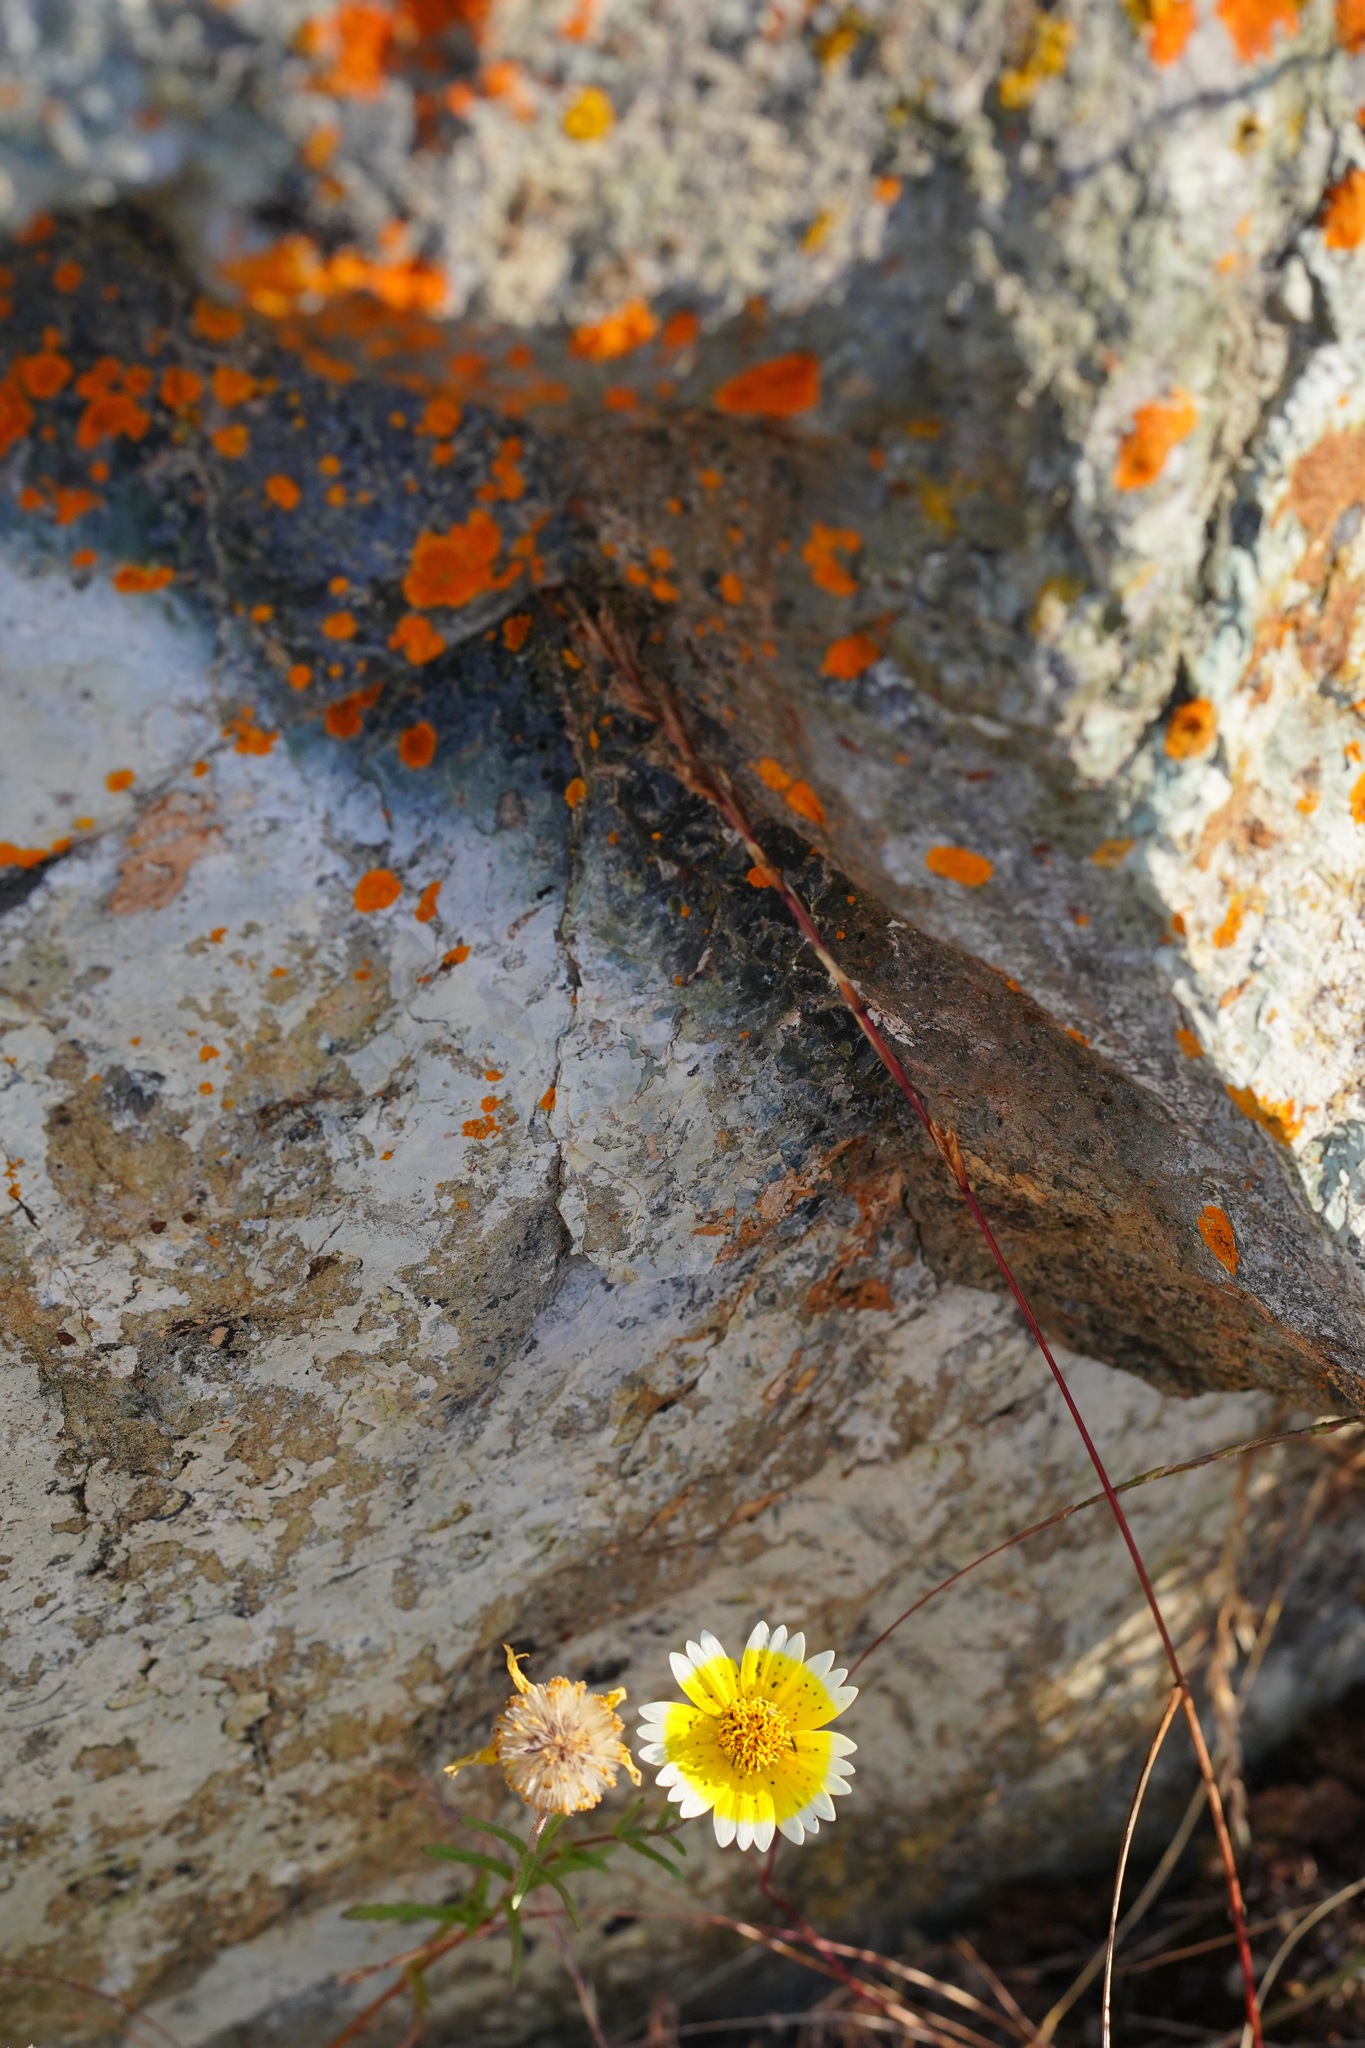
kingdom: Plantae
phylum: Tracheophyta
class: Magnoliopsida
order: Asterales
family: Asteraceae
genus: Layia
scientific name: Layia platyglossa
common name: Tidy-tips
